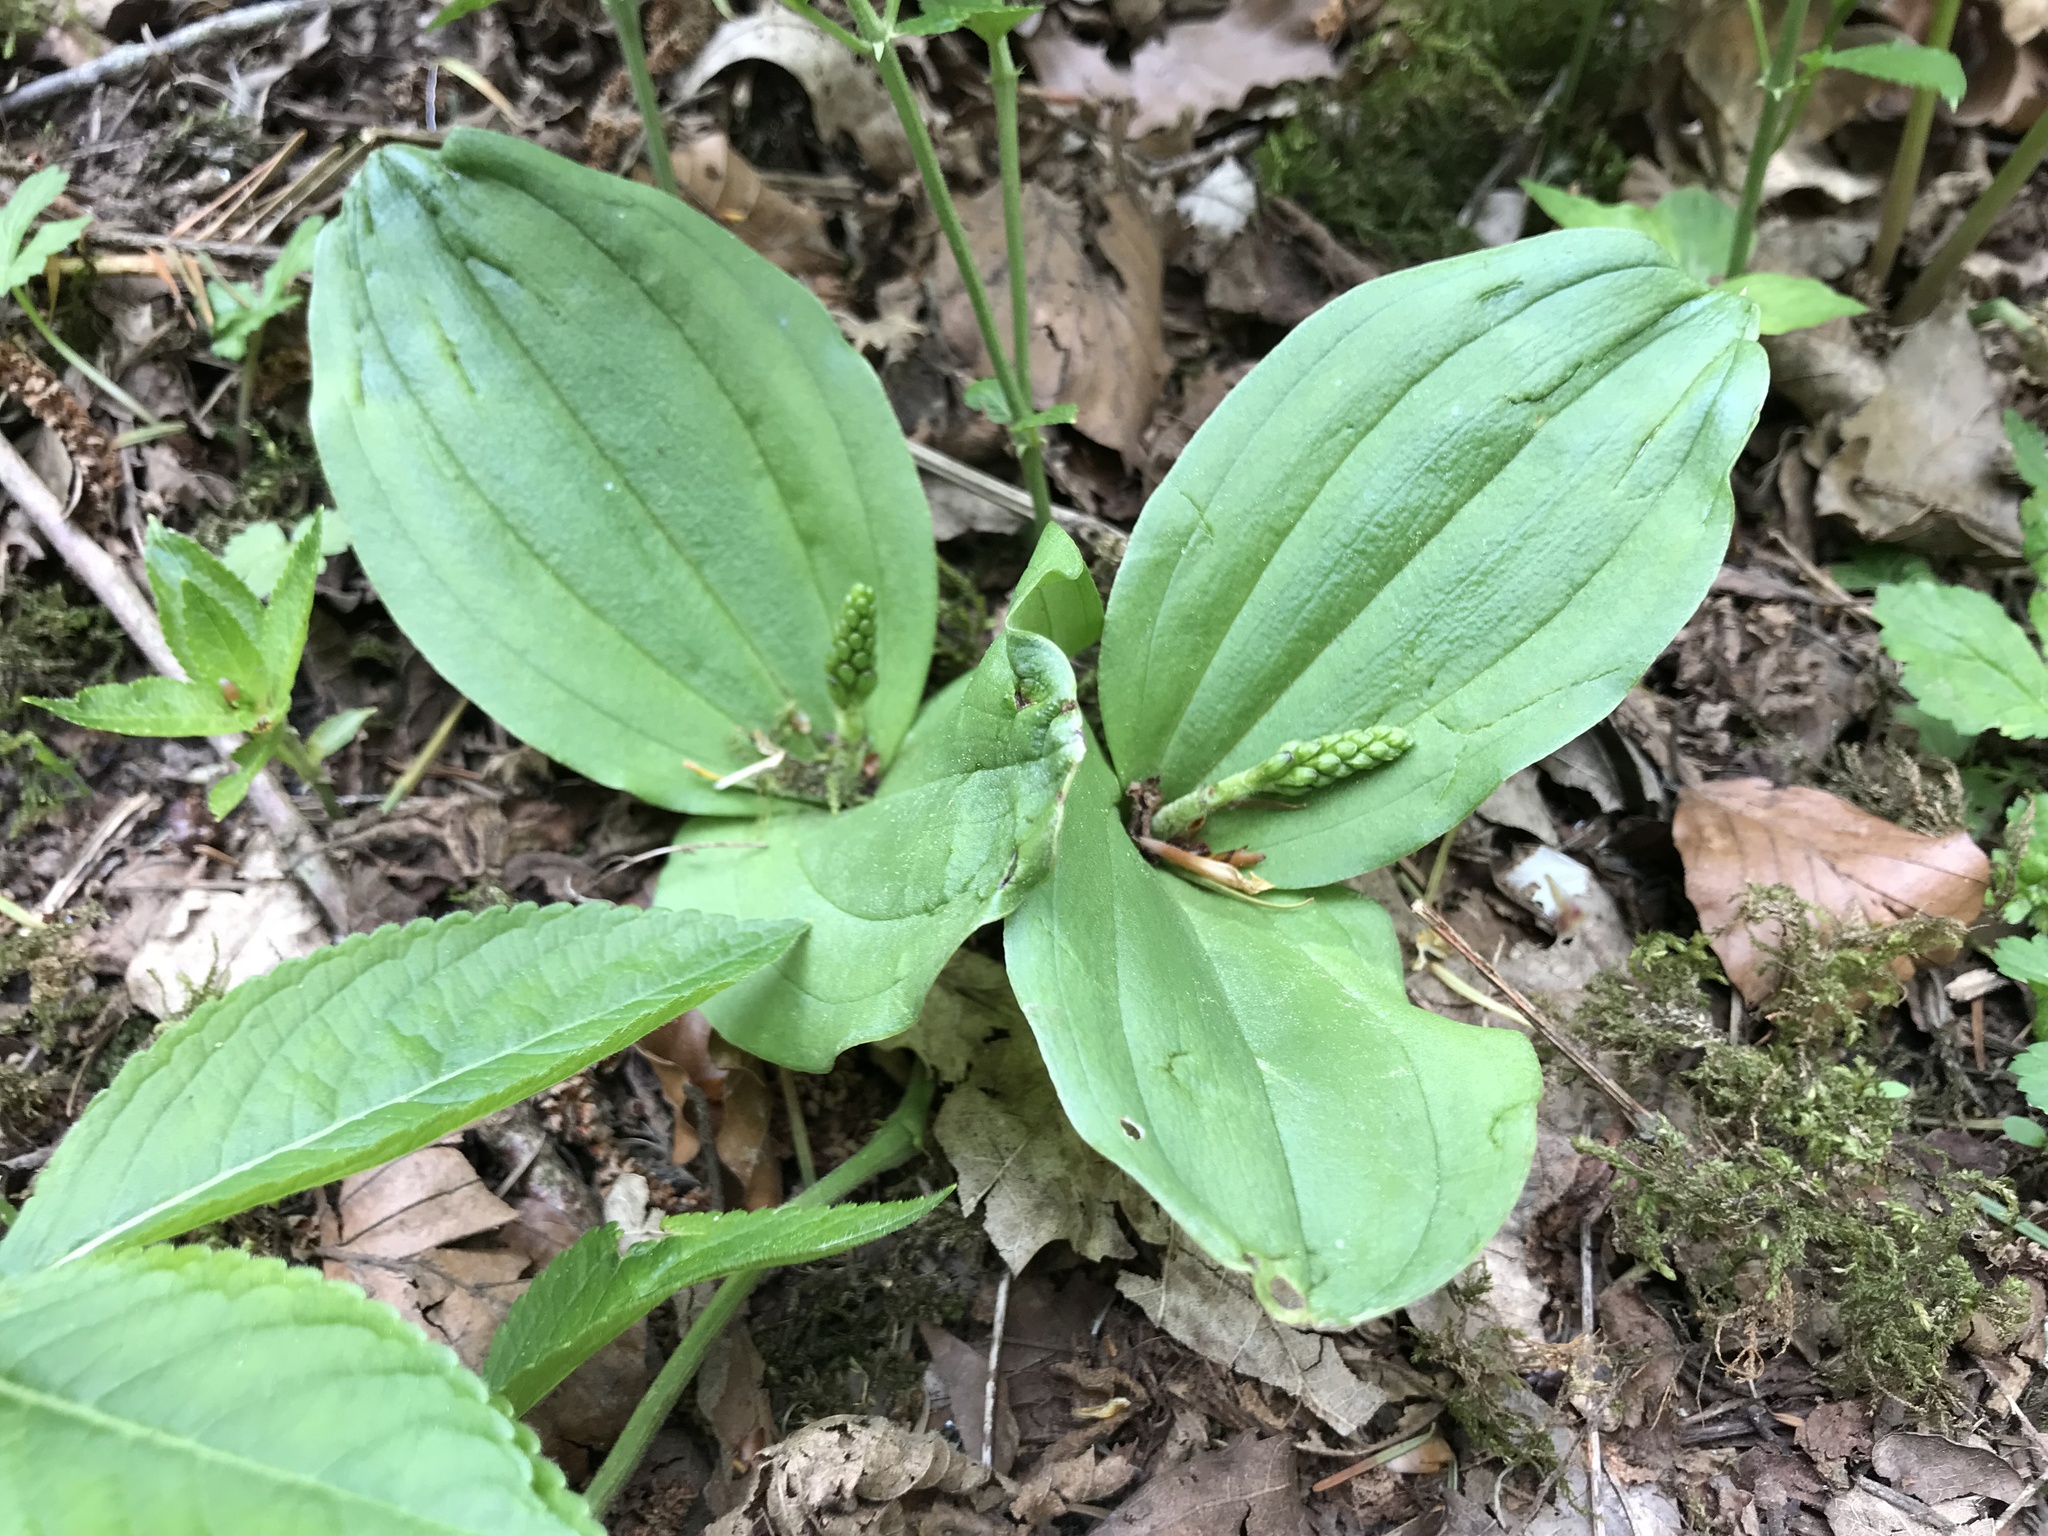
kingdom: Plantae
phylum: Tracheophyta
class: Liliopsida
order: Asparagales
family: Orchidaceae
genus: Neottia
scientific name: Neottia ovata
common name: Common twayblade
